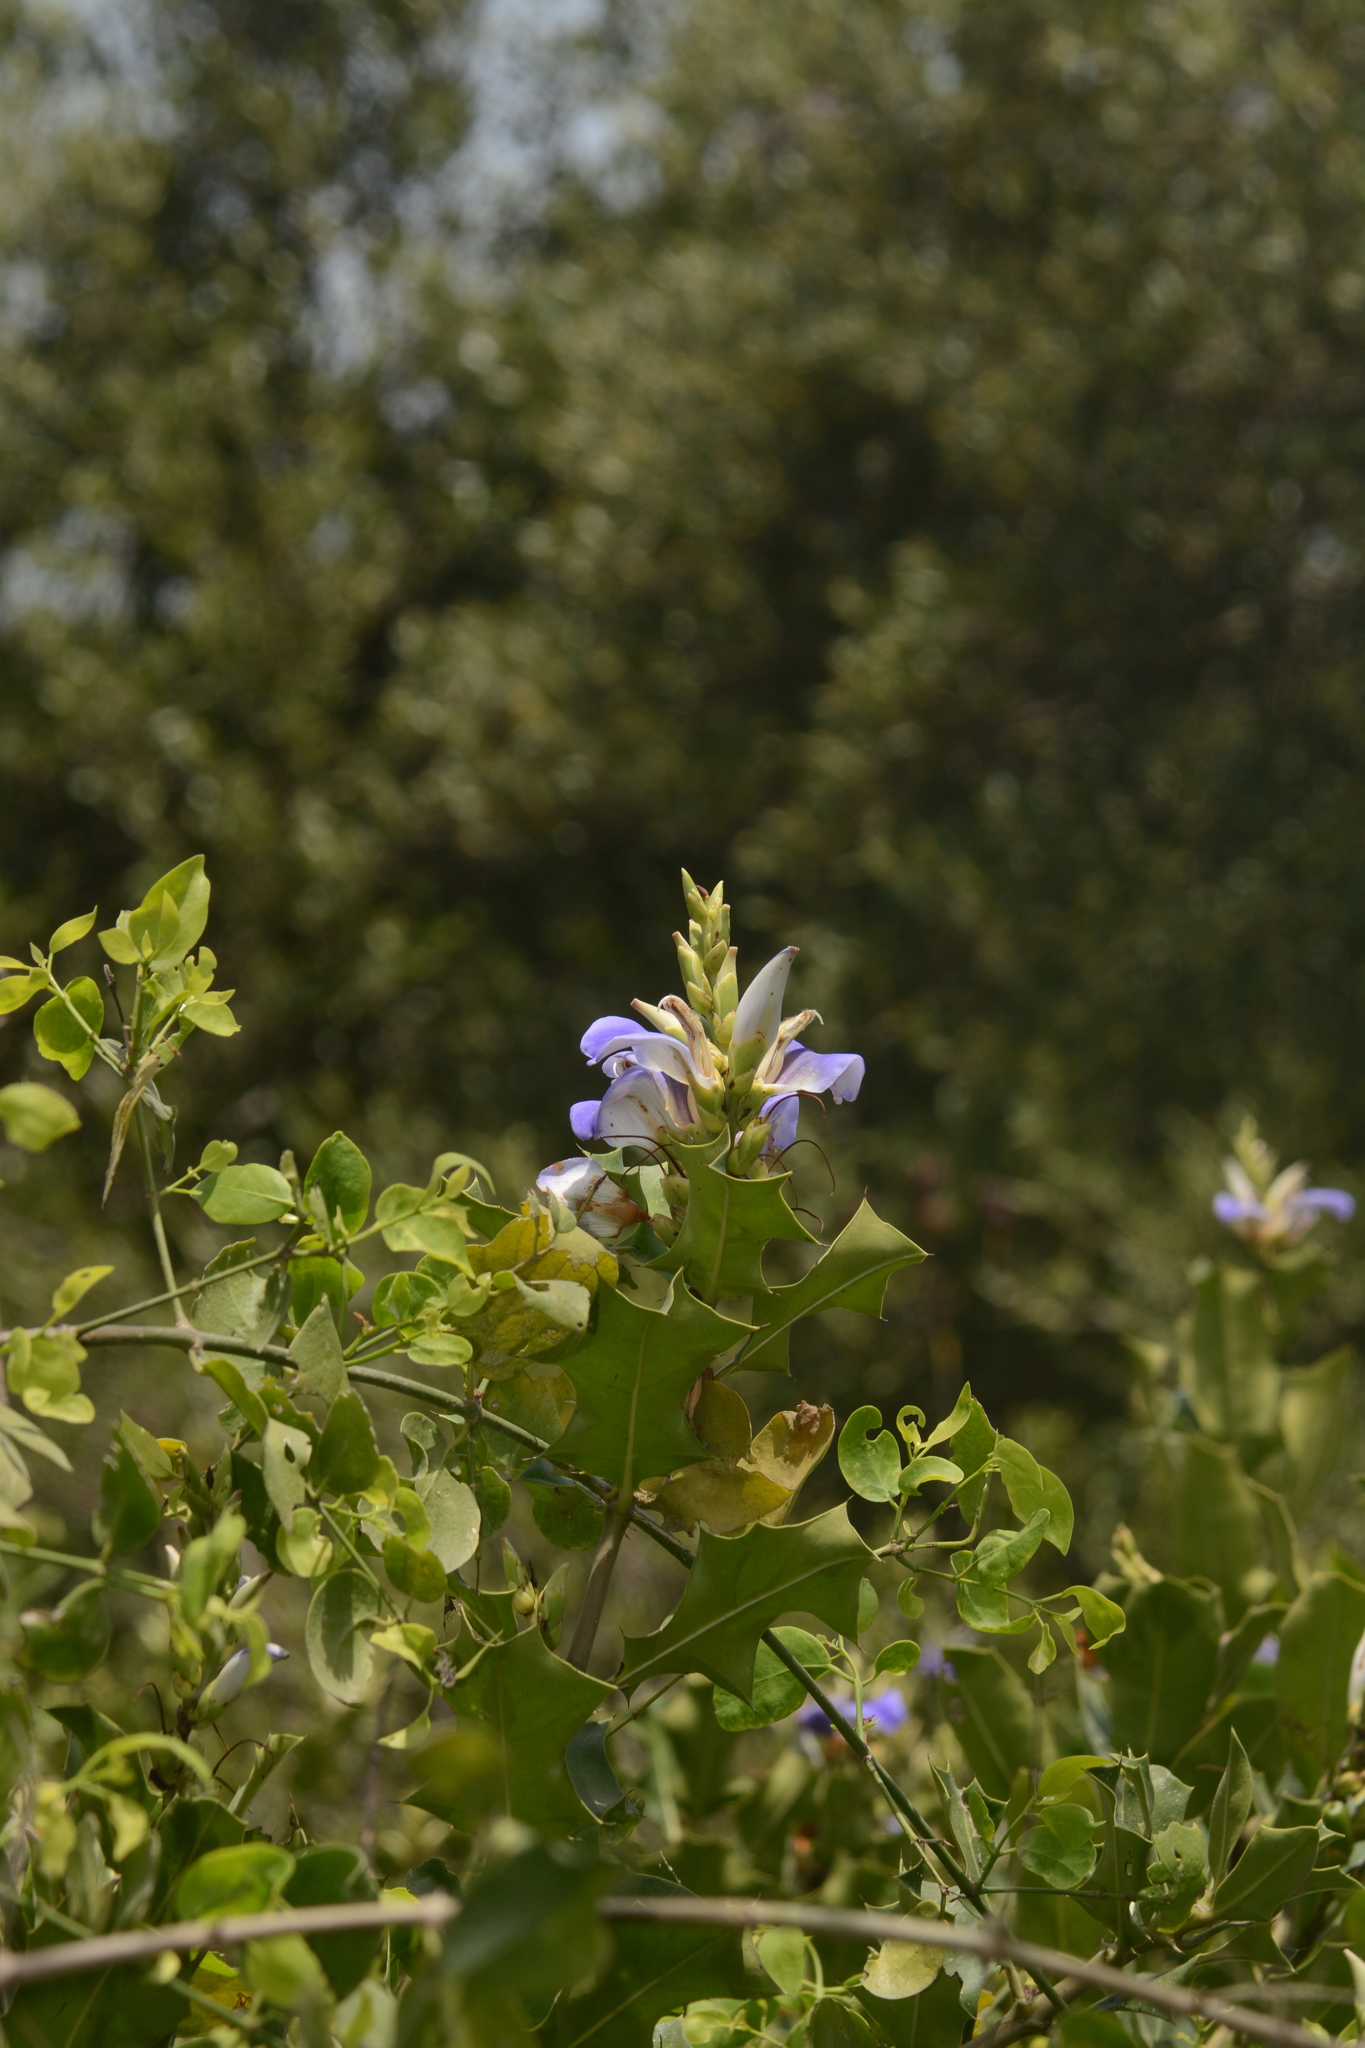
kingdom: Plantae
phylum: Tracheophyta
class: Magnoliopsida
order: Lamiales
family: Acanthaceae
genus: Acanthus
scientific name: Acanthus ilicifolius
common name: Holy mangrove
